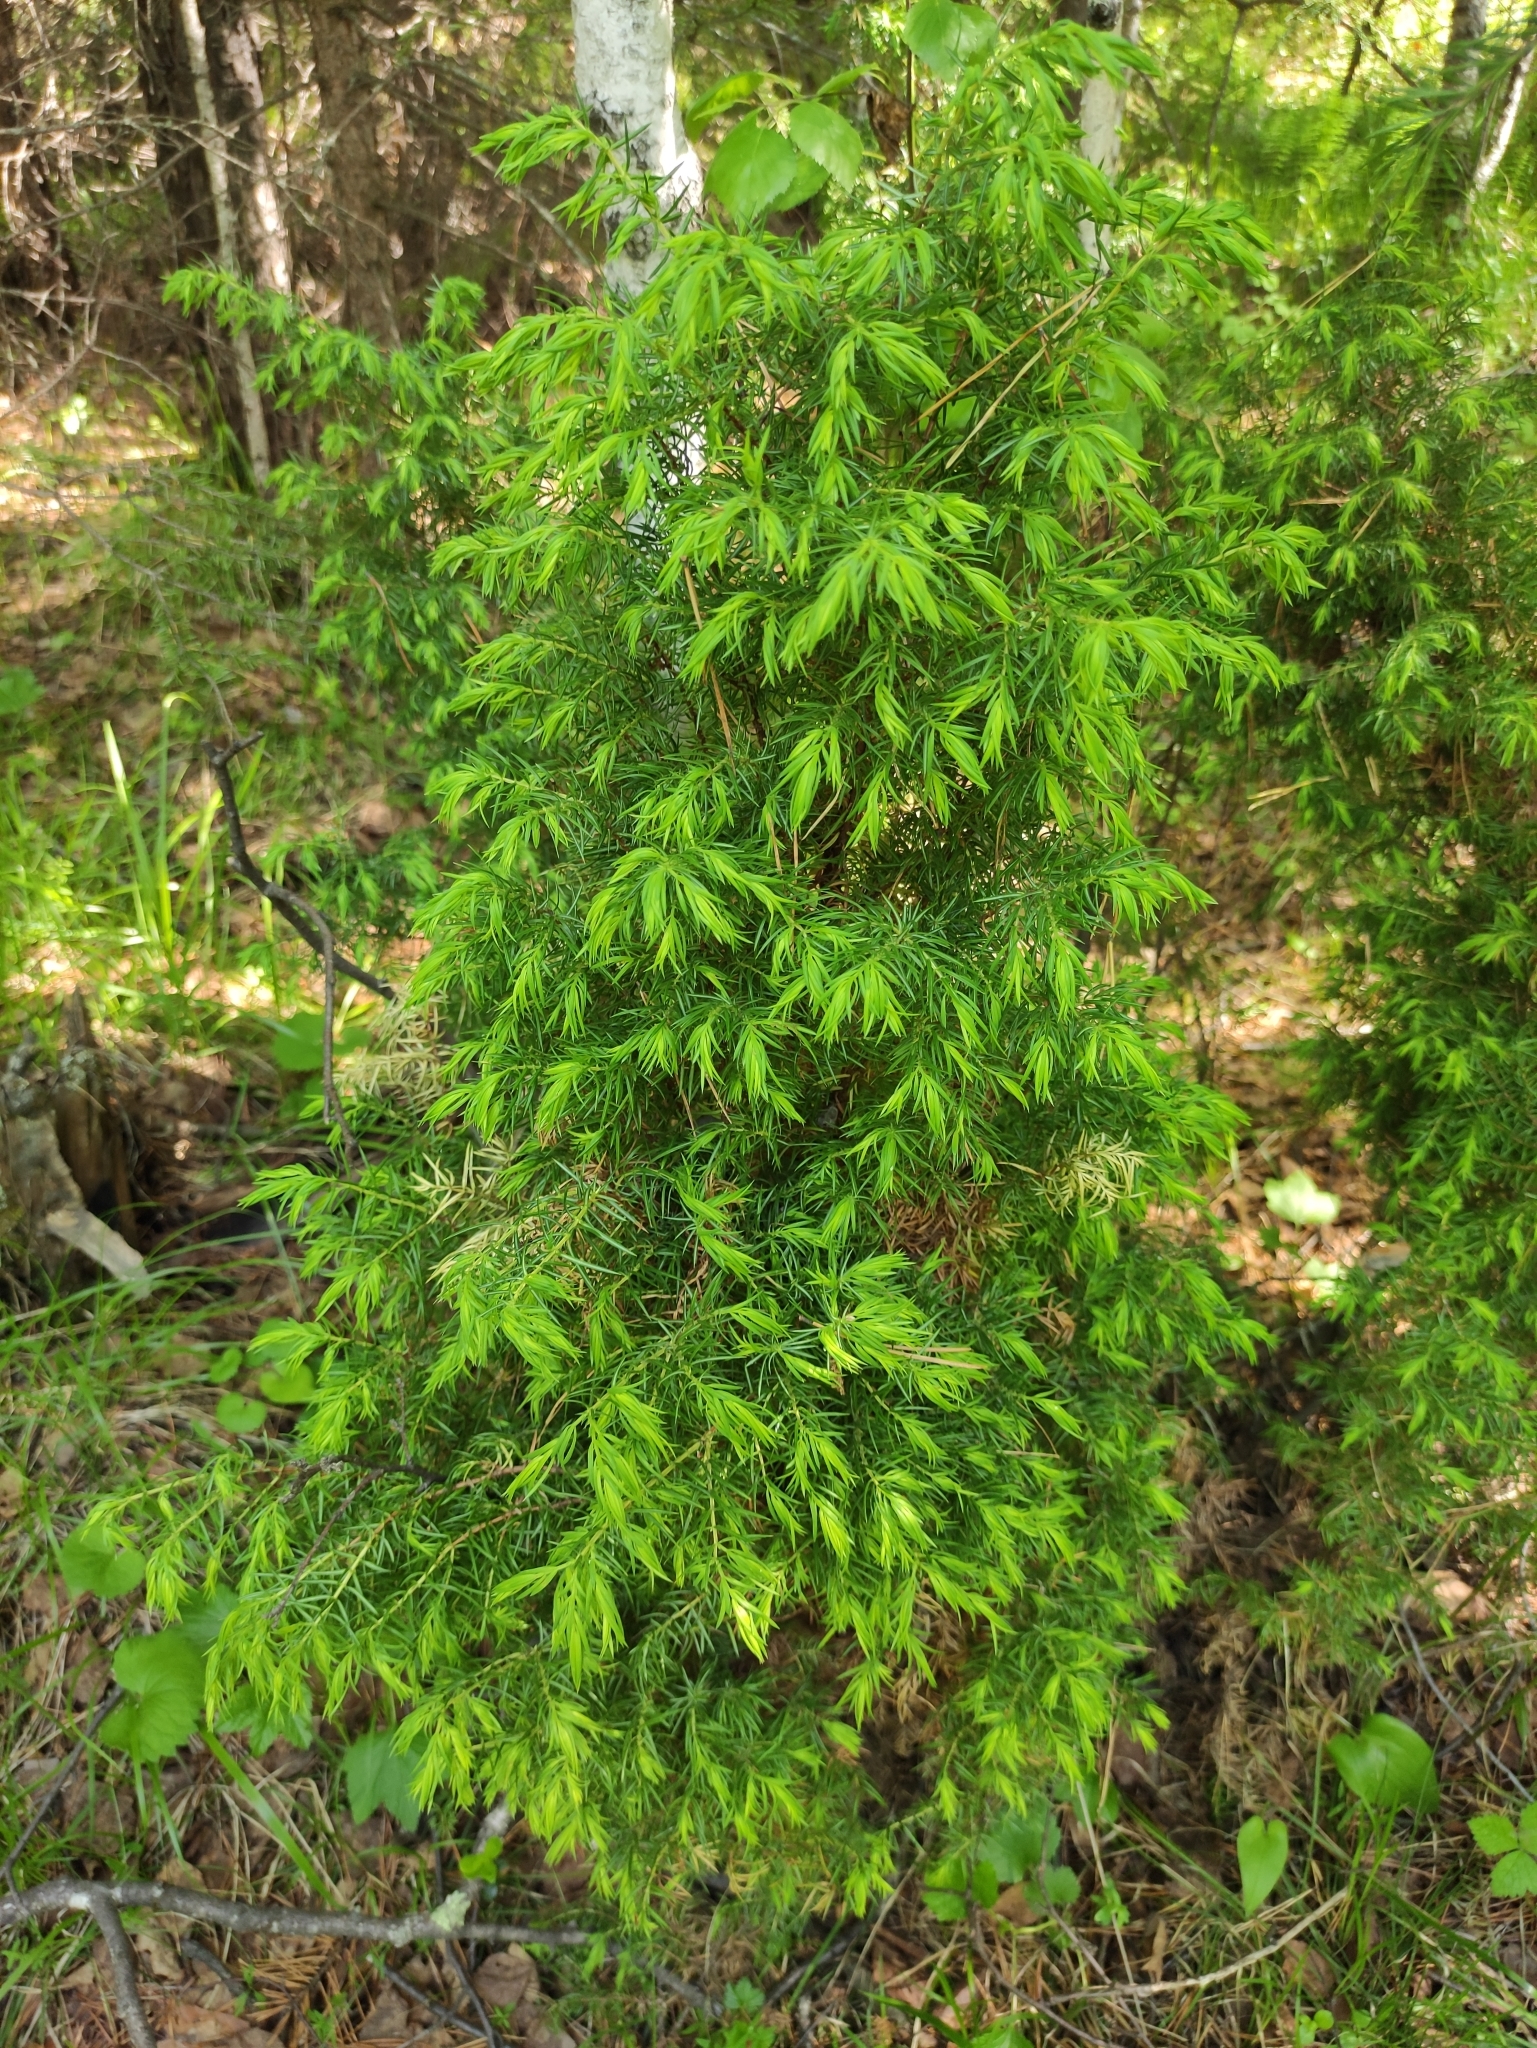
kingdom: Plantae
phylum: Tracheophyta
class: Pinopsida
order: Pinales
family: Cupressaceae
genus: Juniperus
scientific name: Juniperus communis
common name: Common juniper
